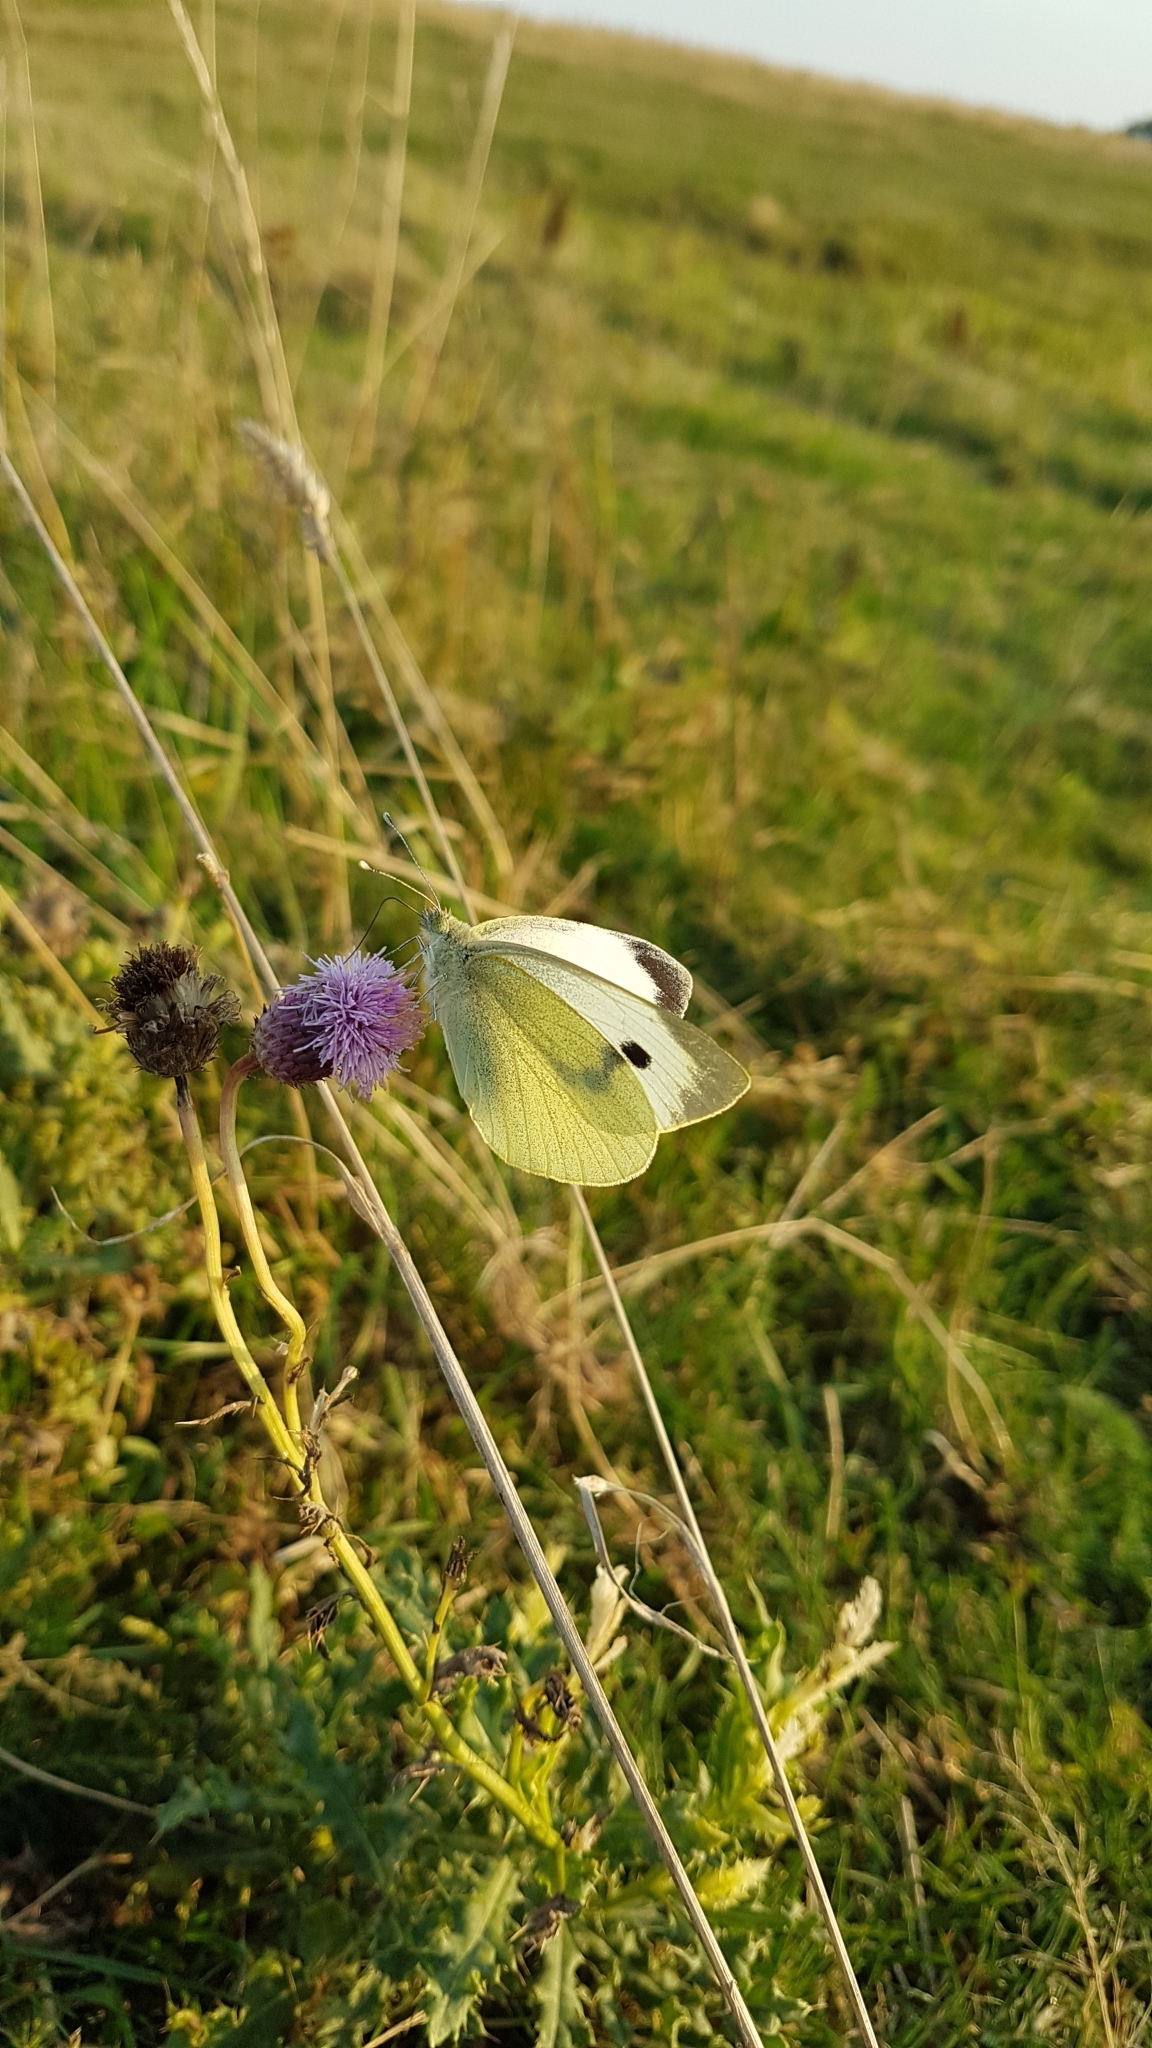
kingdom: Animalia
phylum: Arthropoda
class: Insecta
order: Lepidoptera
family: Pieridae
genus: Pieris
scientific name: Pieris brassicae
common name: Large white
